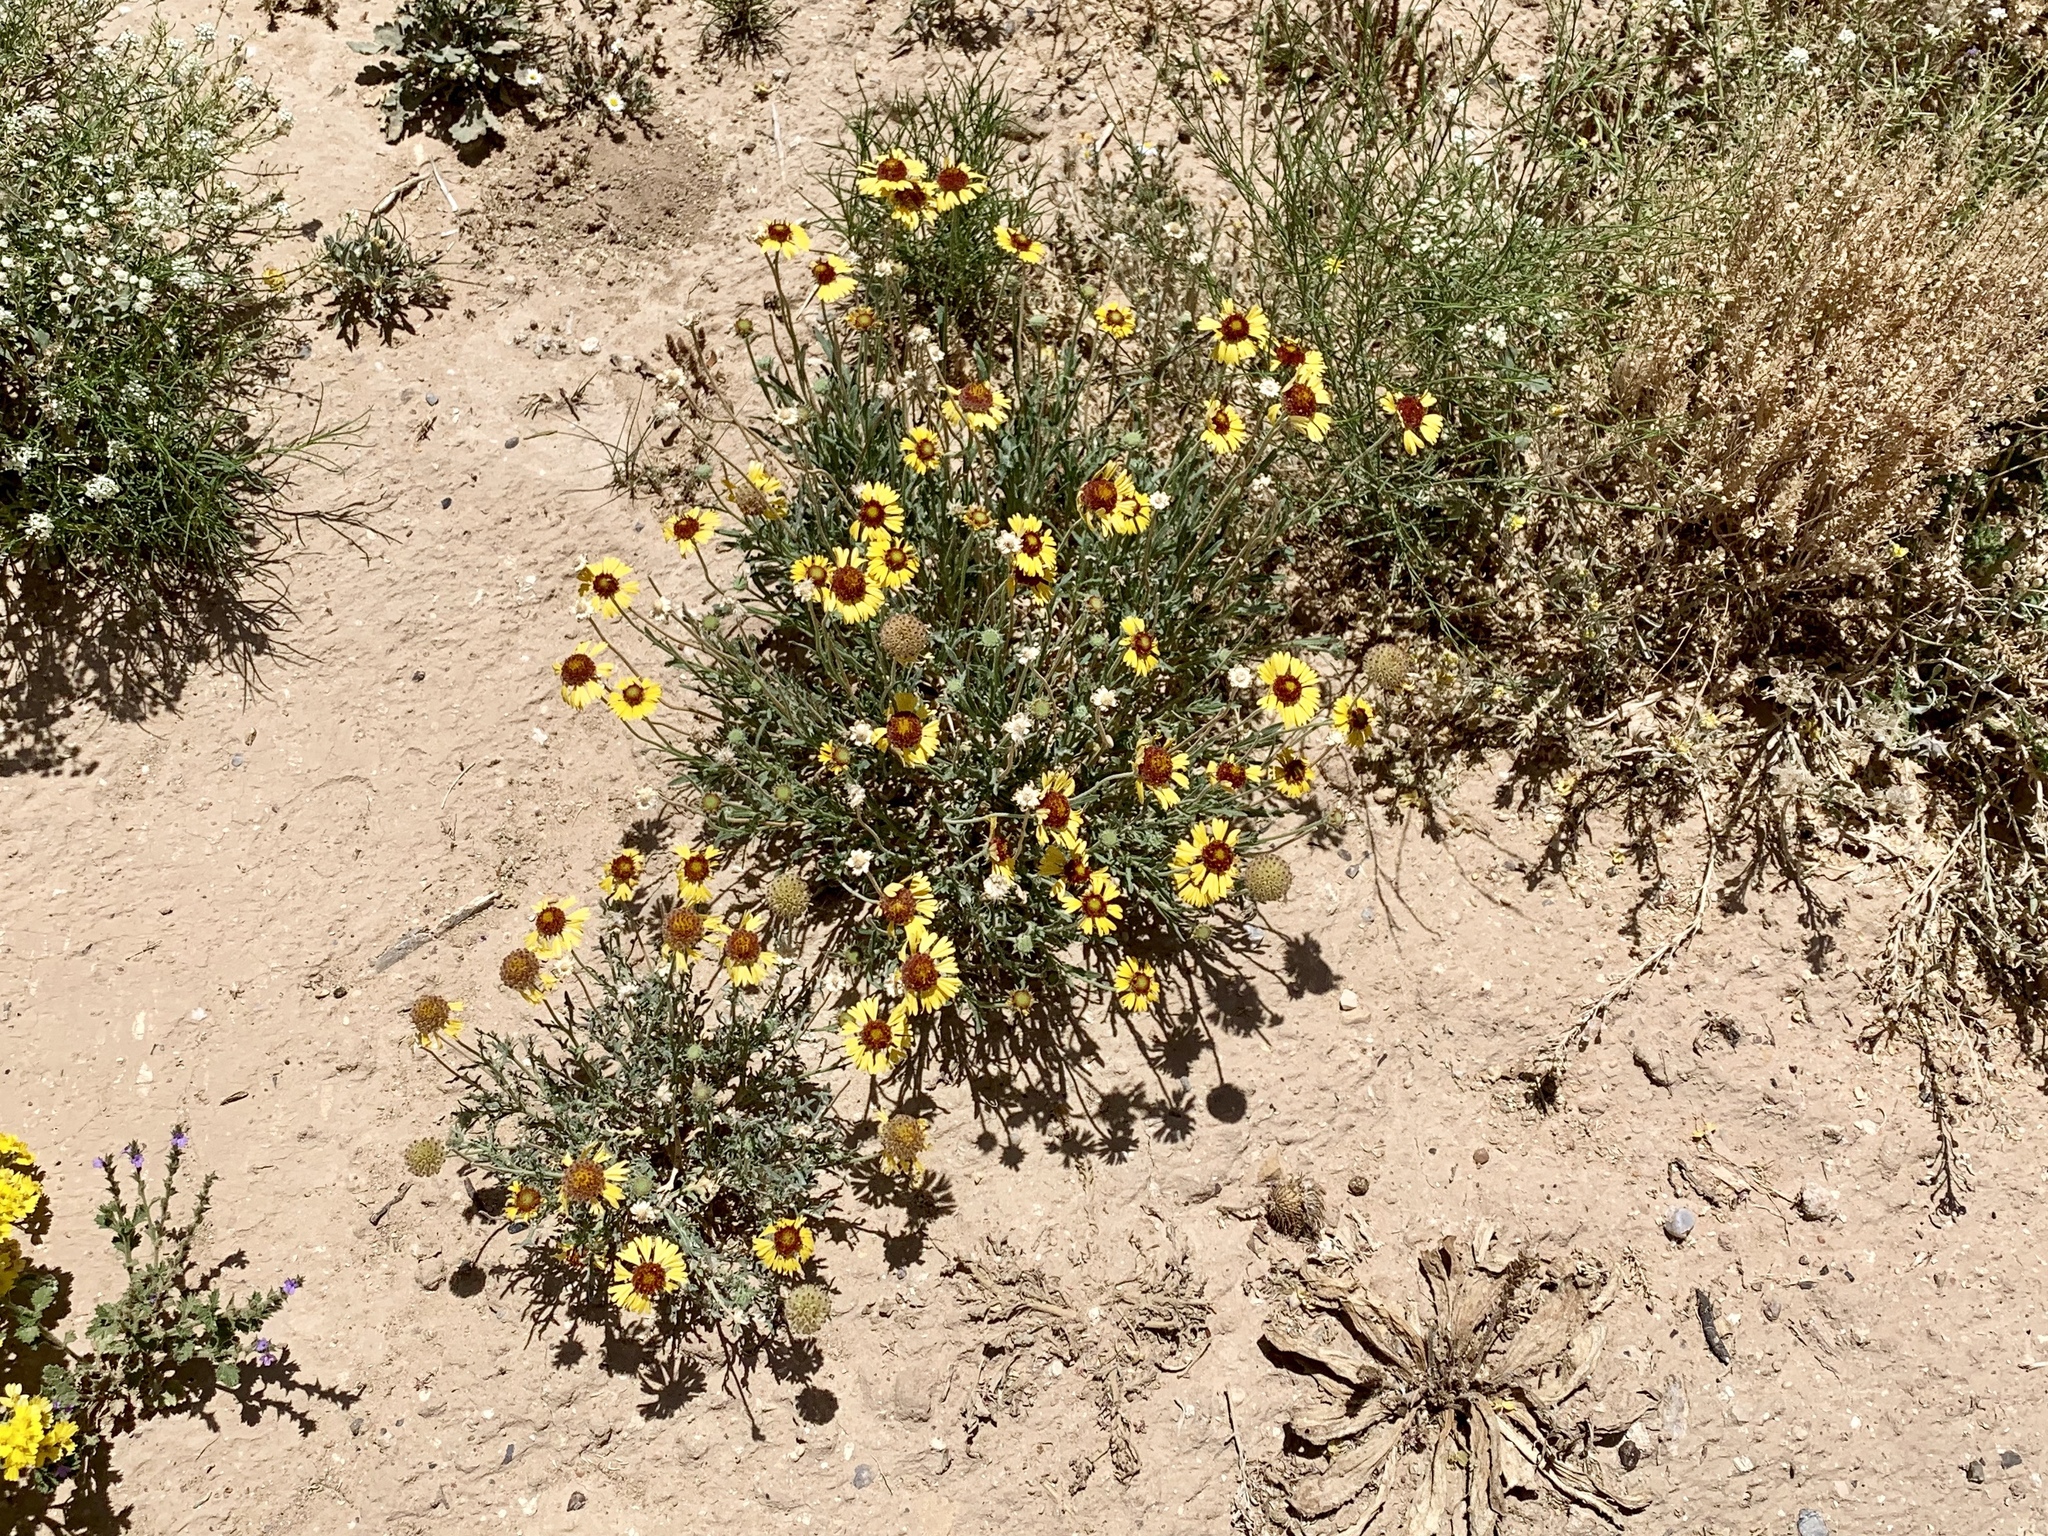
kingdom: Plantae
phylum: Tracheophyta
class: Magnoliopsida
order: Asterales
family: Asteraceae
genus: Gaillardia
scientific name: Gaillardia pinnatifida
